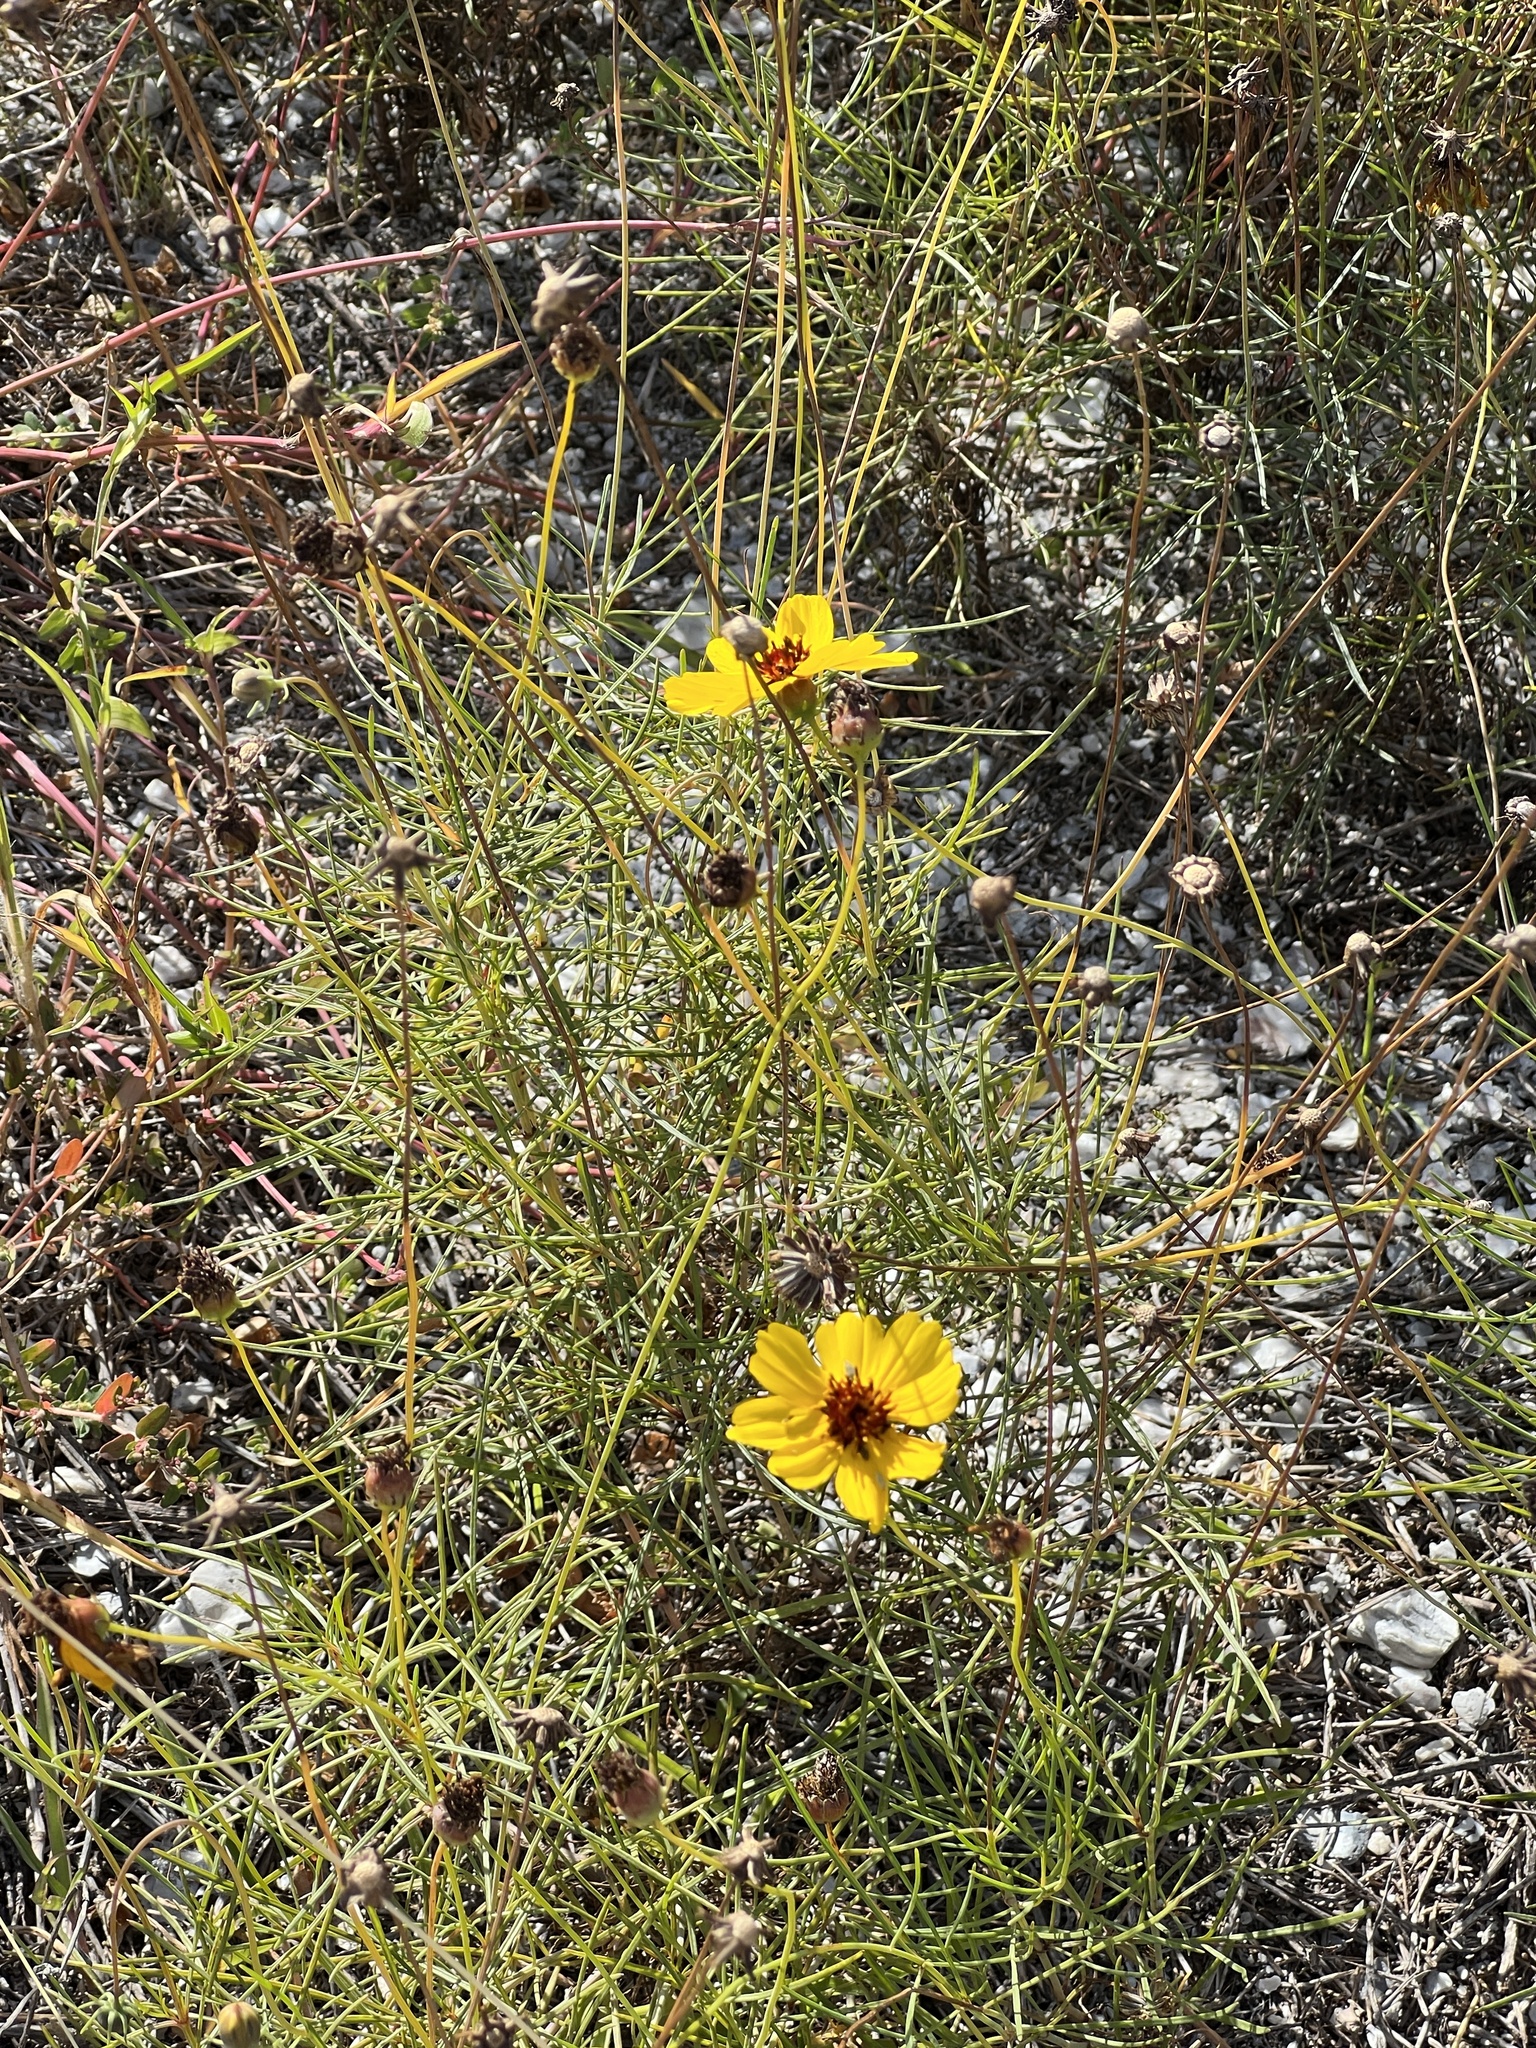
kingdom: Plantae
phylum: Tracheophyta
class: Magnoliopsida
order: Asterales
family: Asteraceae
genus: Thelesperma
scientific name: Thelesperma filifolium
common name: Stiff greenthread
